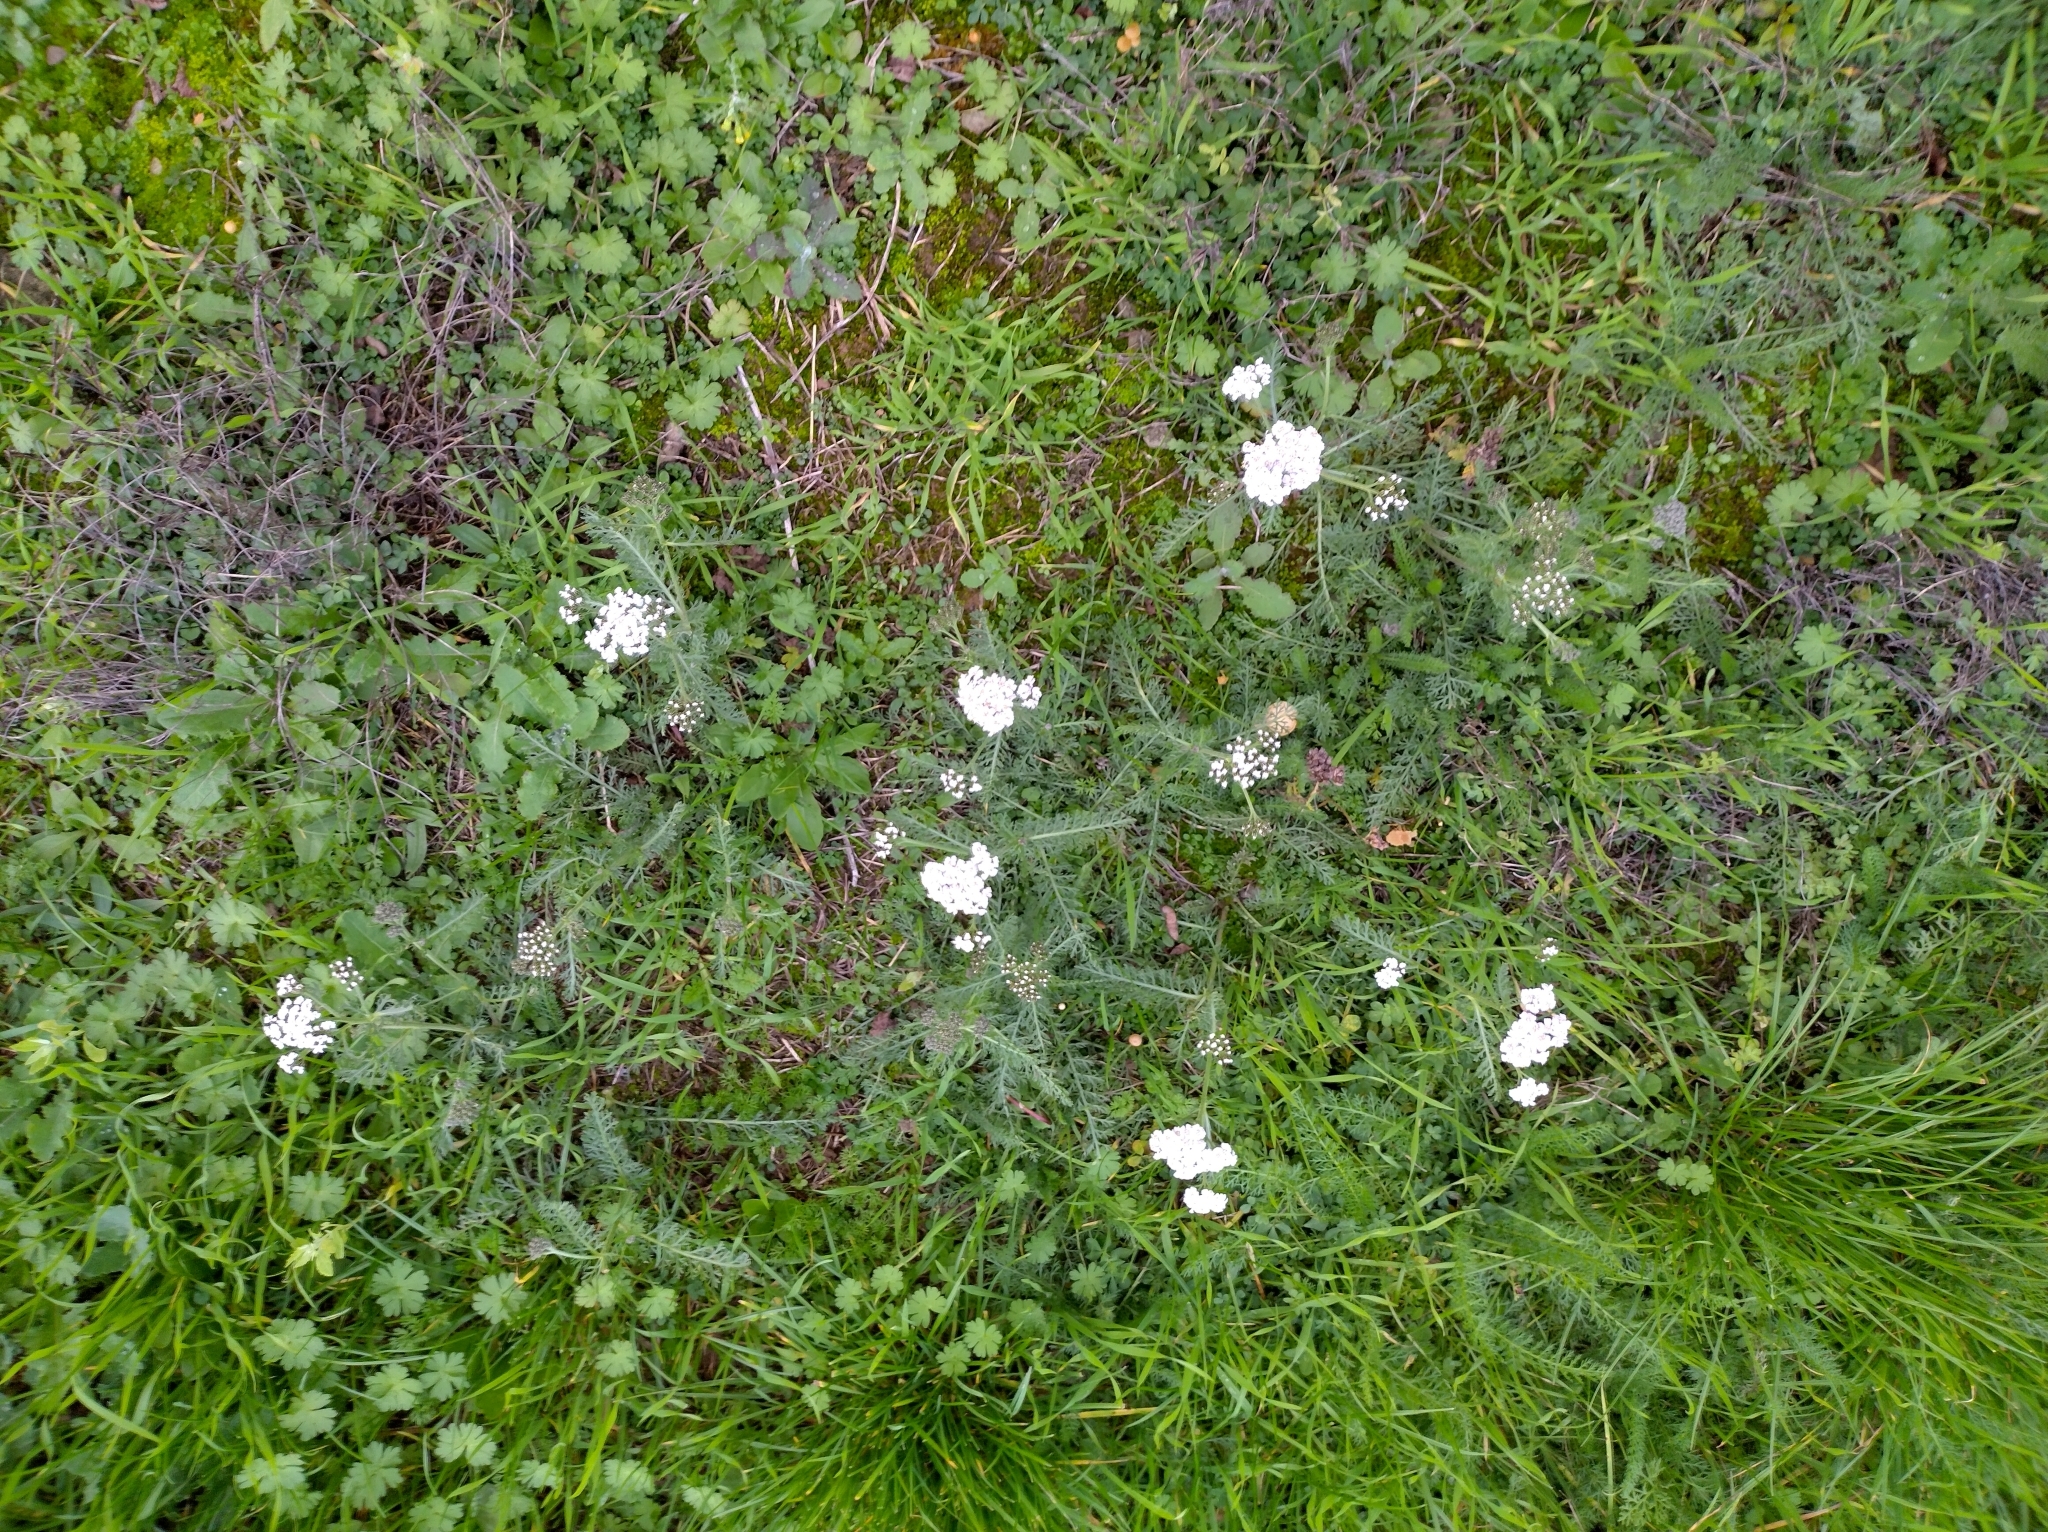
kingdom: Plantae
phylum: Tracheophyta
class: Magnoliopsida
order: Asterales
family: Asteraceae
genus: Achillea
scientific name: Achillea millefolium
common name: Yarrow
